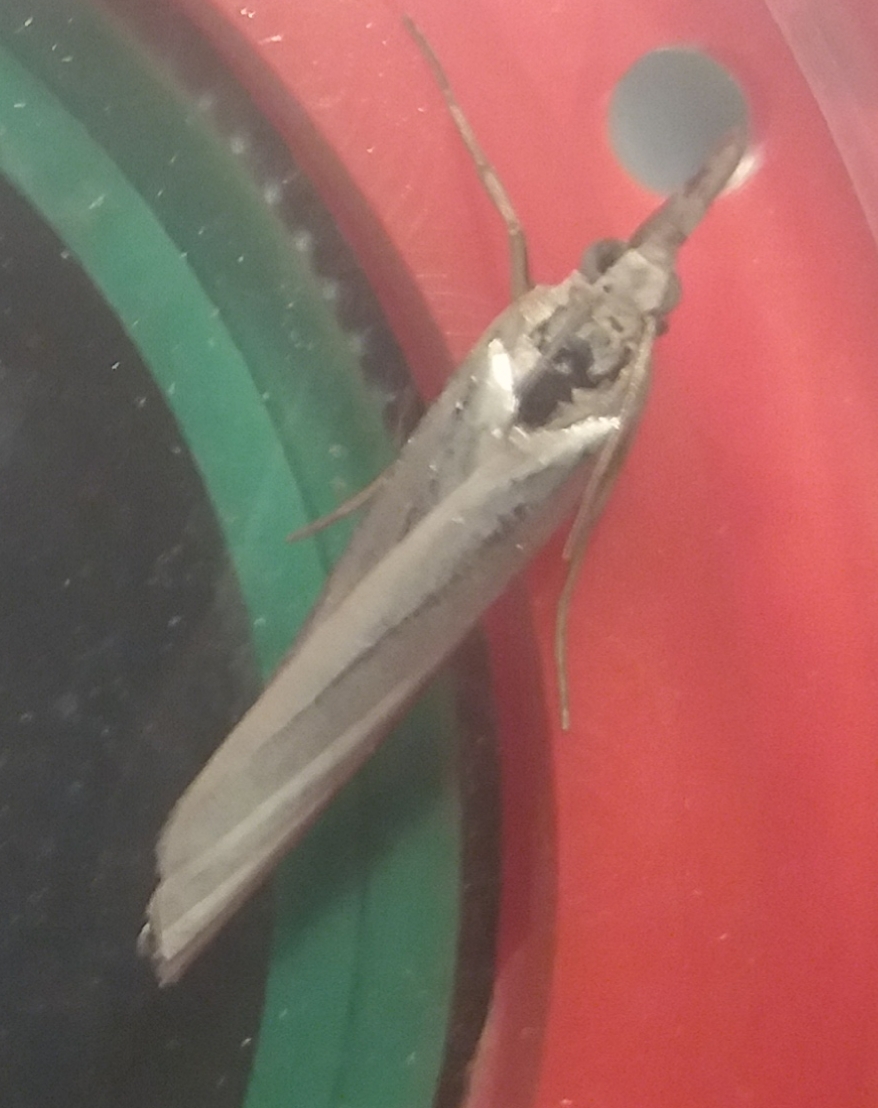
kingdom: Animalia
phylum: Arthropoda
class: Insecta
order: Lepidoptera
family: Crambidae
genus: Crambus
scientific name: Crambus perlellus
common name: Yellow satin veneer
